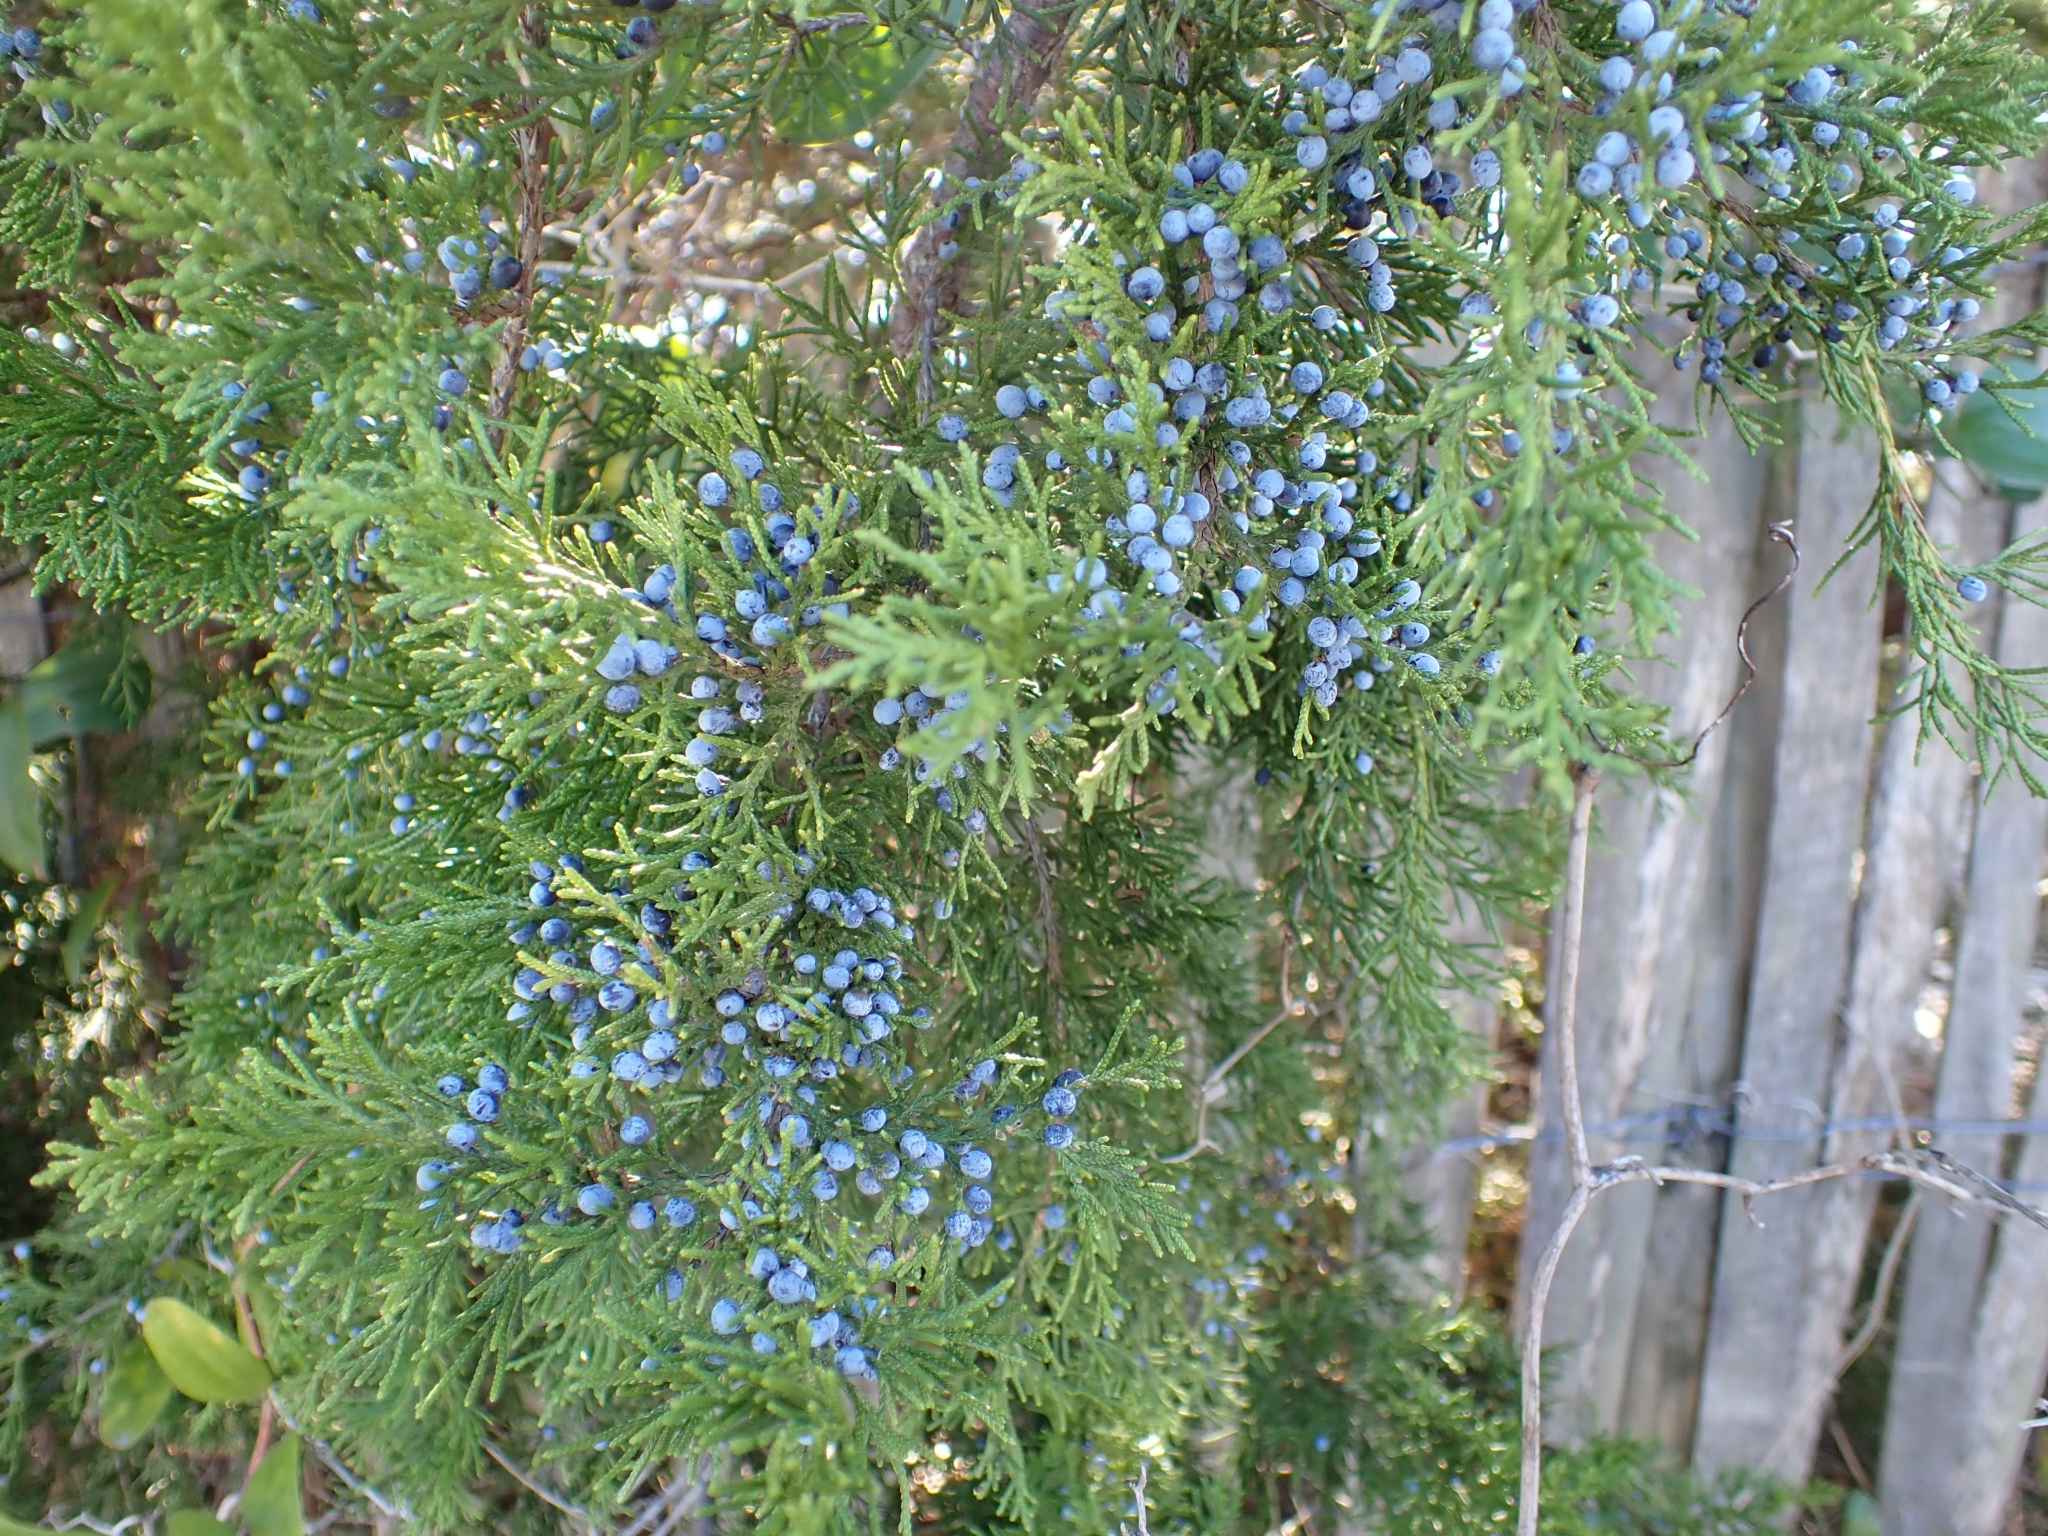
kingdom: Plantae
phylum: Tracheophyta
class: Pinopsida
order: Pinales
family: Cupressaceae
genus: Juniperus
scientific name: Juniperus virginiana
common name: Red juniper
